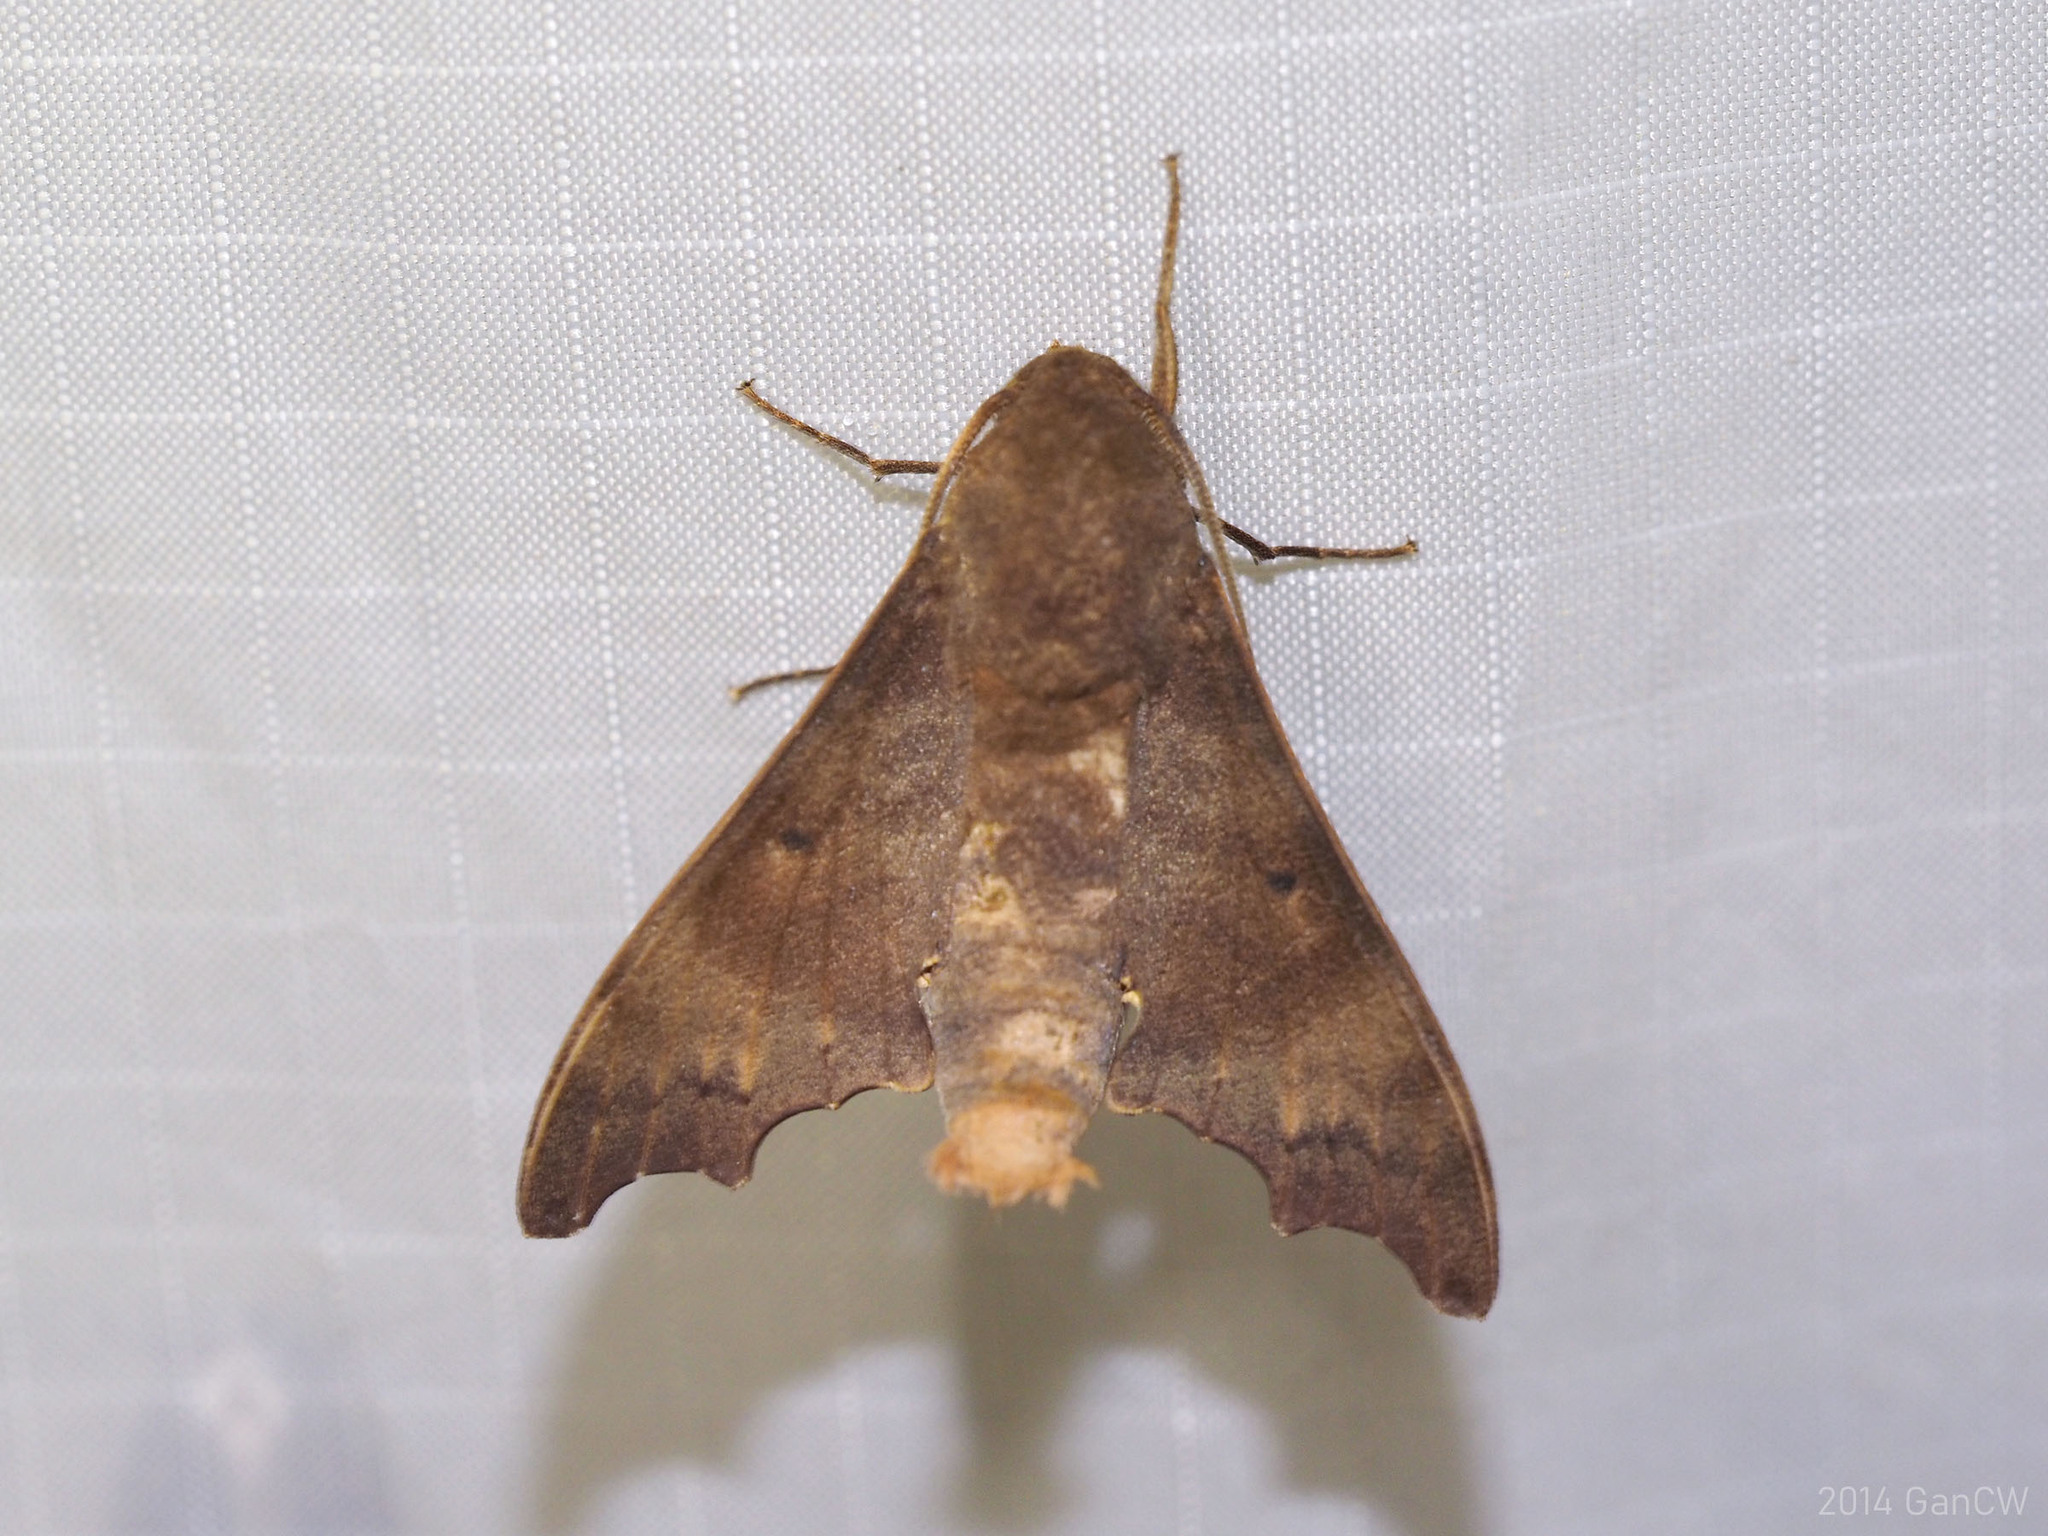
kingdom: Animalia
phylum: Arthropoda
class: Insecta
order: Lepidoptera
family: Sphingidae
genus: Cypa
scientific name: Cypa decolor
